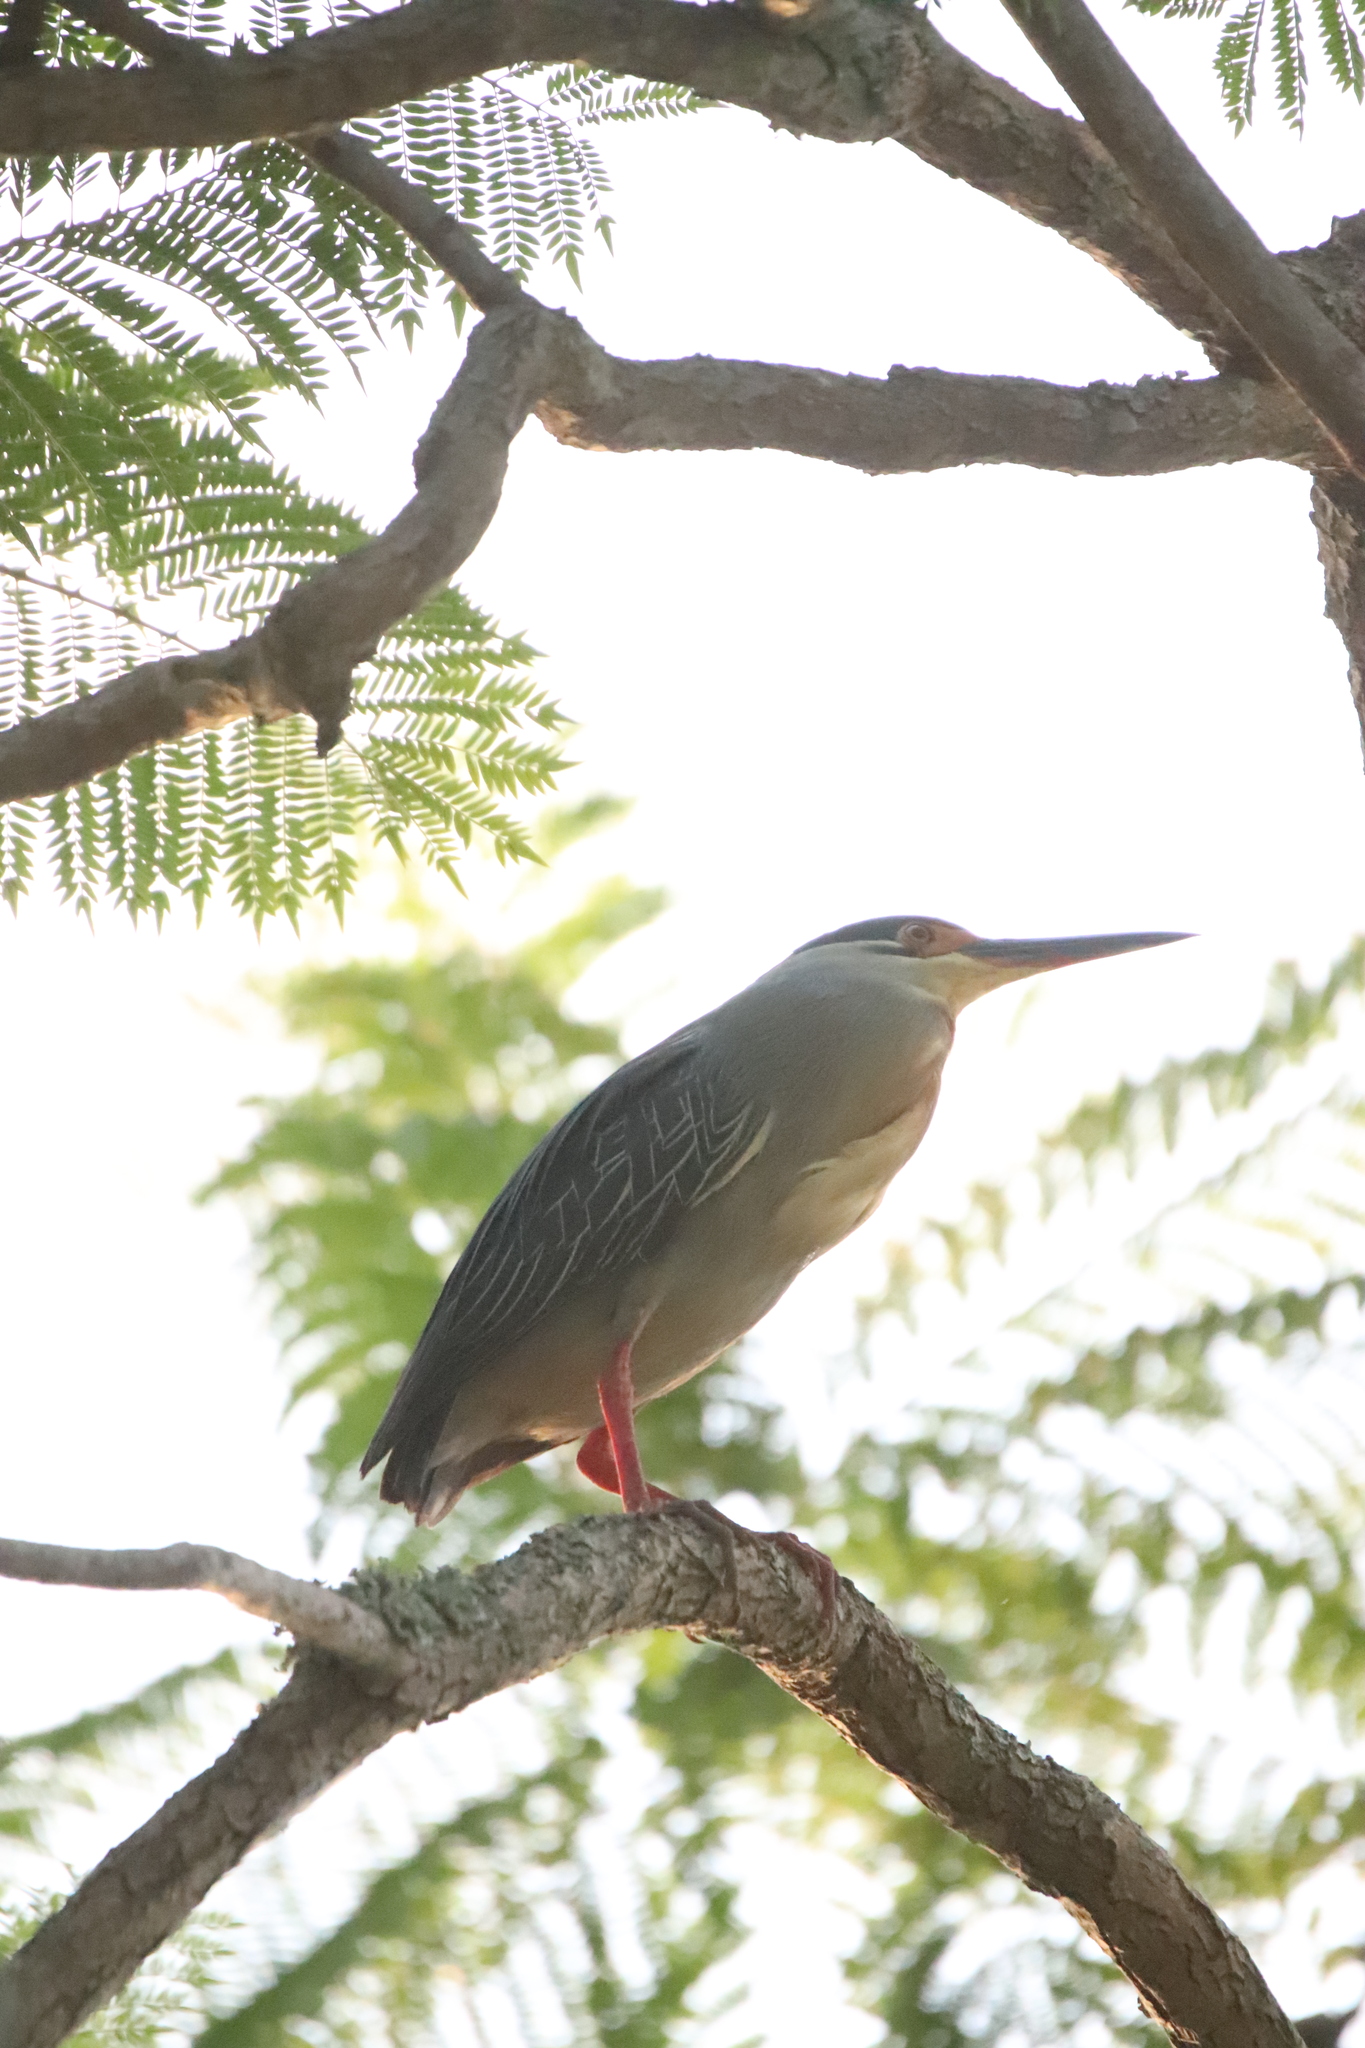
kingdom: Animalia
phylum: Chordata
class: Aves
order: Pelecaniformes
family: Ardeidae
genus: Butorides
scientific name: Butorides striata
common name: Striated heron
